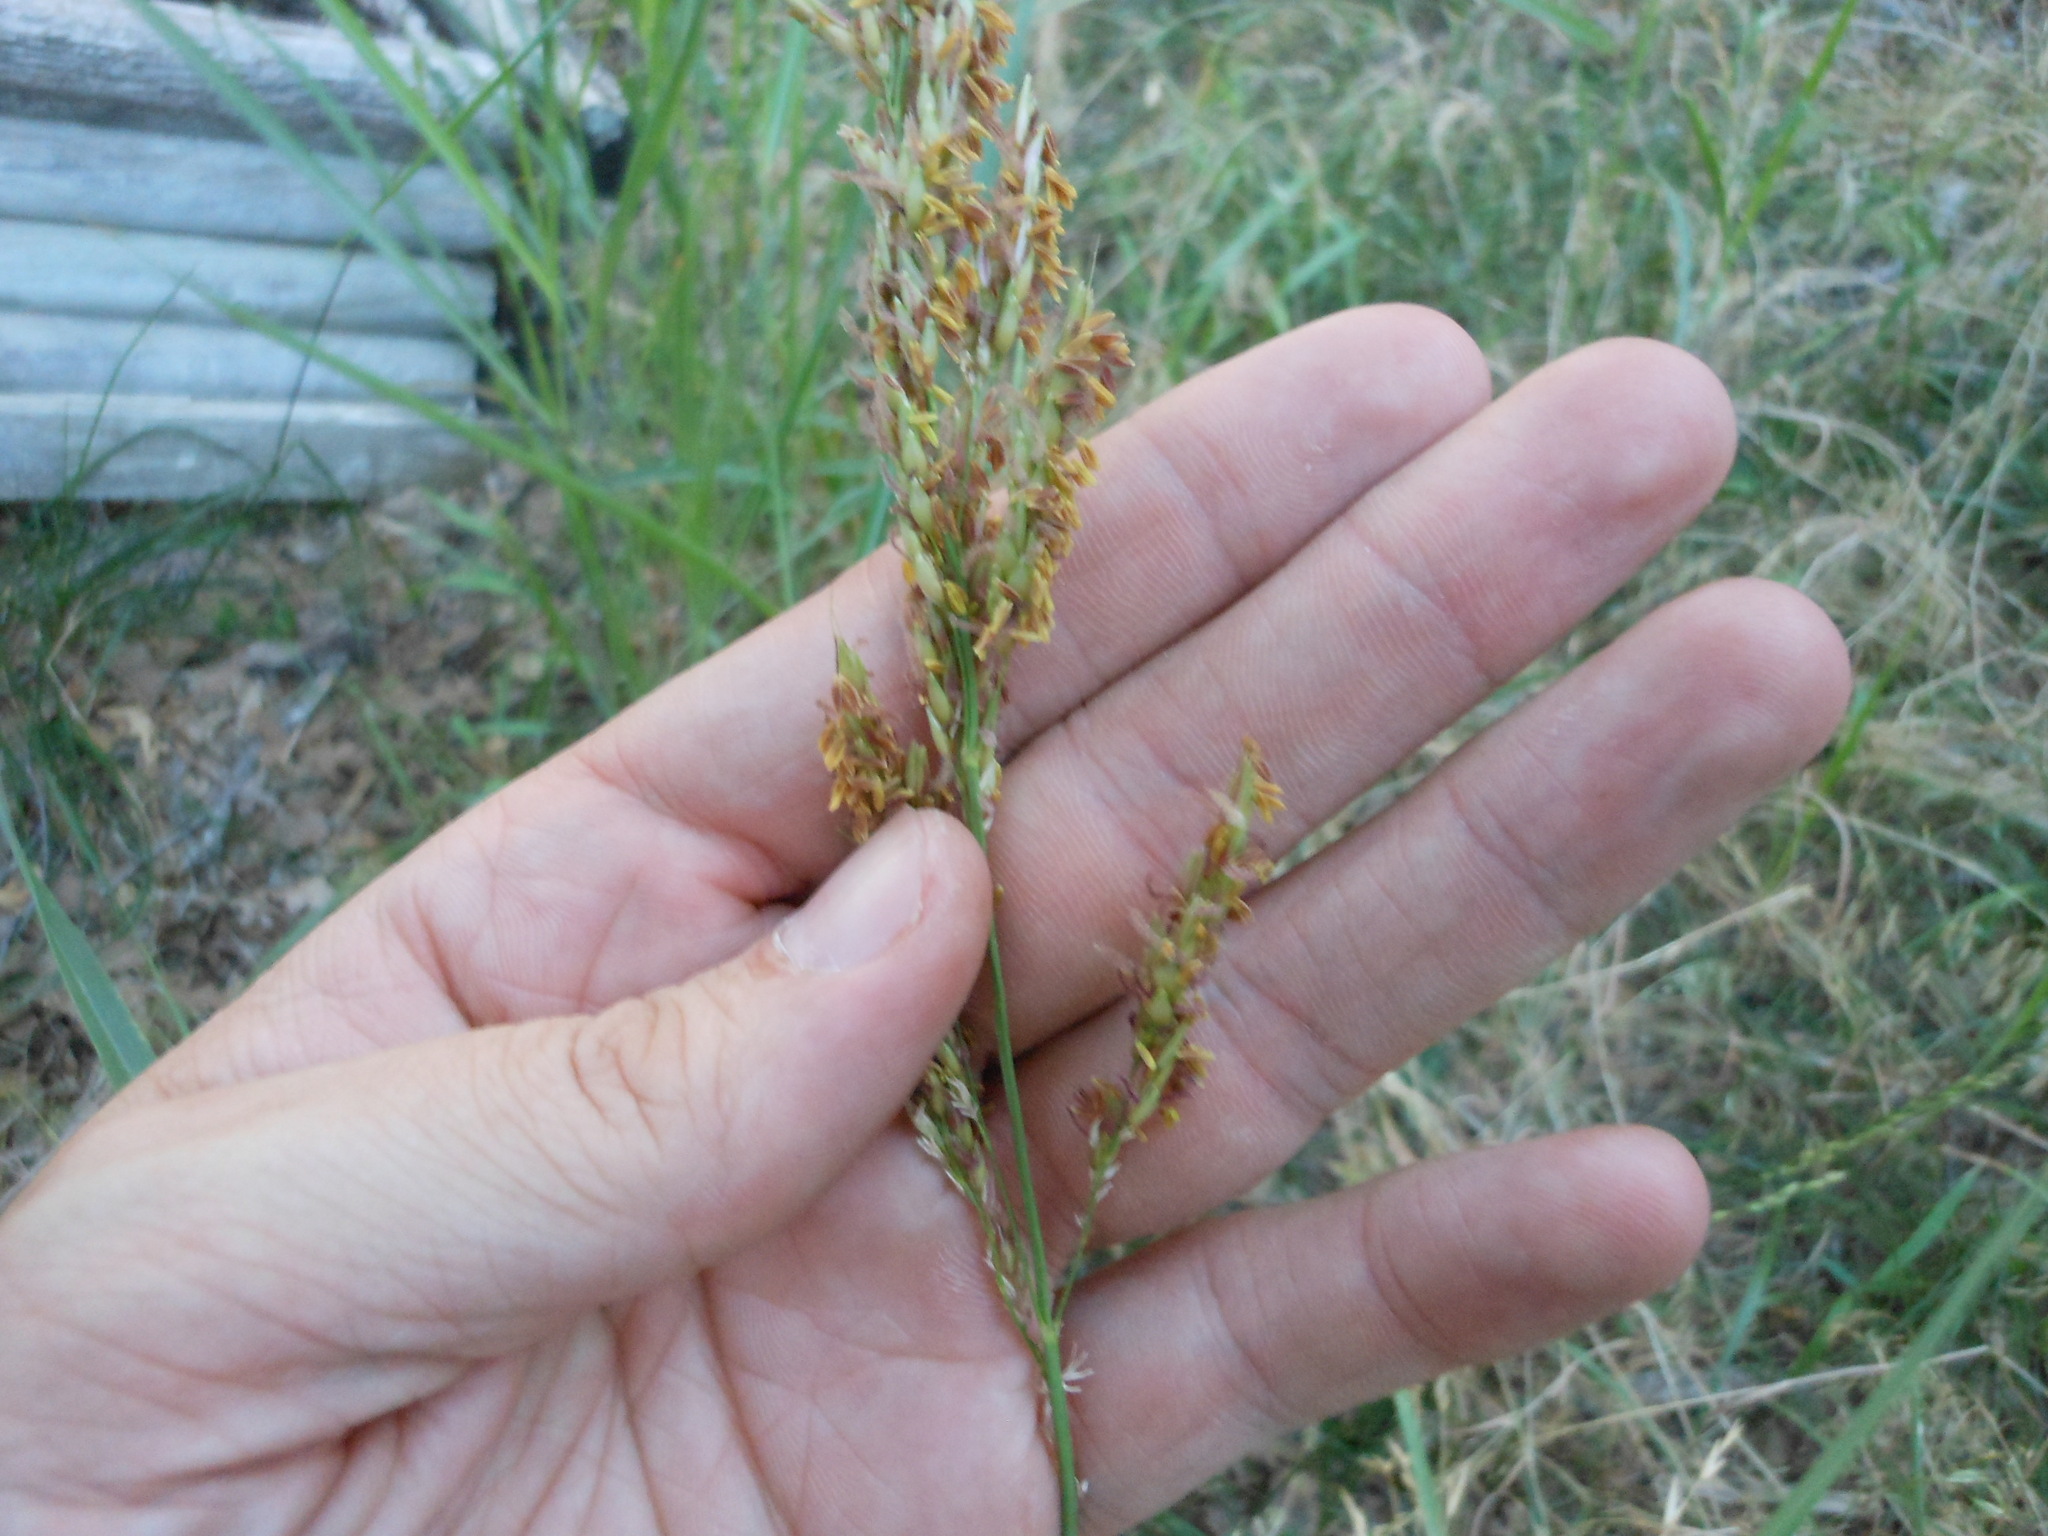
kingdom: Plantae
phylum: Tracheophyta
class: Liliopsida
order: Poales
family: Poaceae
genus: Sorghum
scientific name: Sorghum halepense
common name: Johnson-grass
